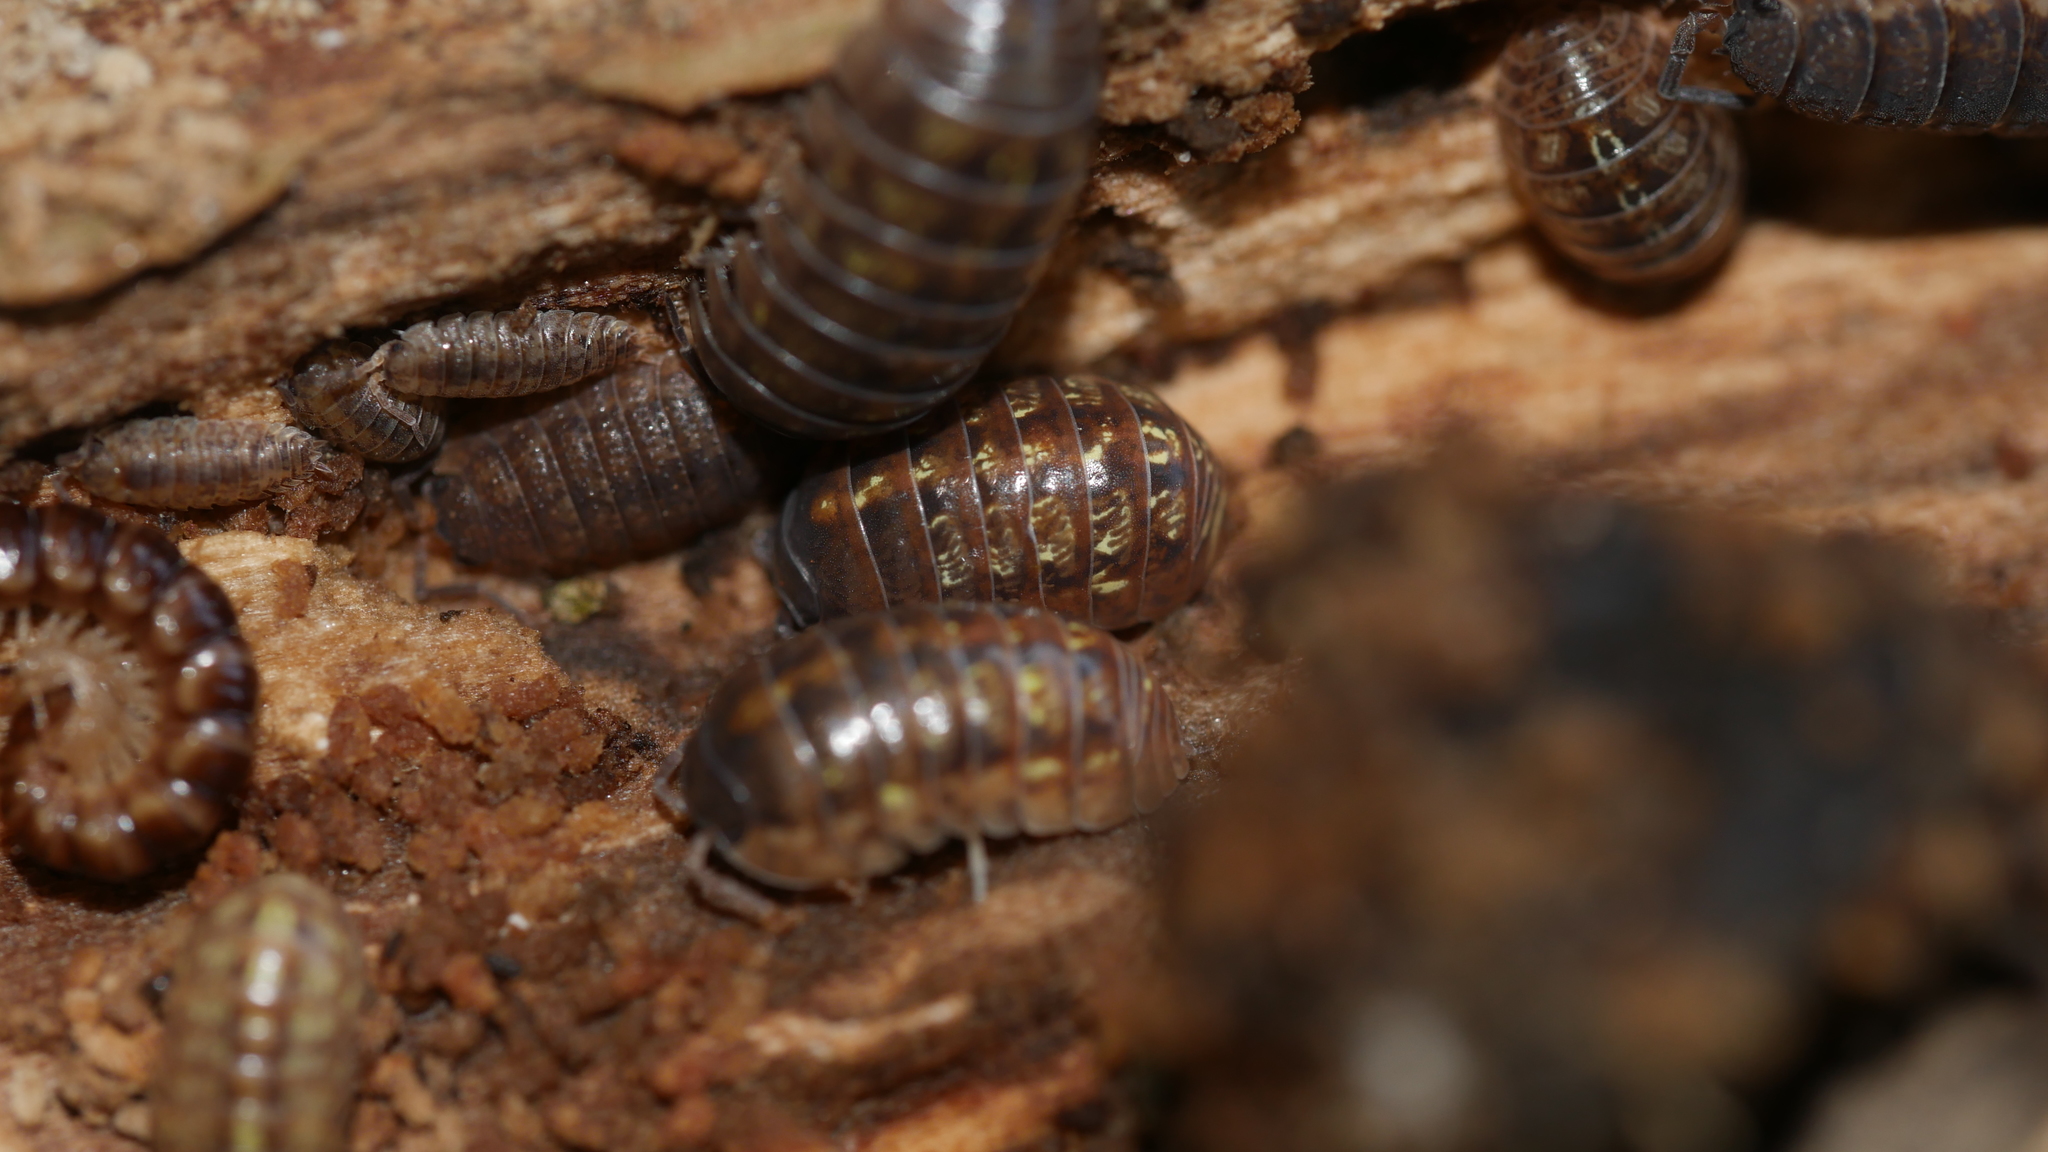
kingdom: Animalia
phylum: Arthropoda
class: Malacostraca
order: Isopoda
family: Armadillidiidae
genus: Armadillidium
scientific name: Armadillidium vulgare
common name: Common pill woodlouse
